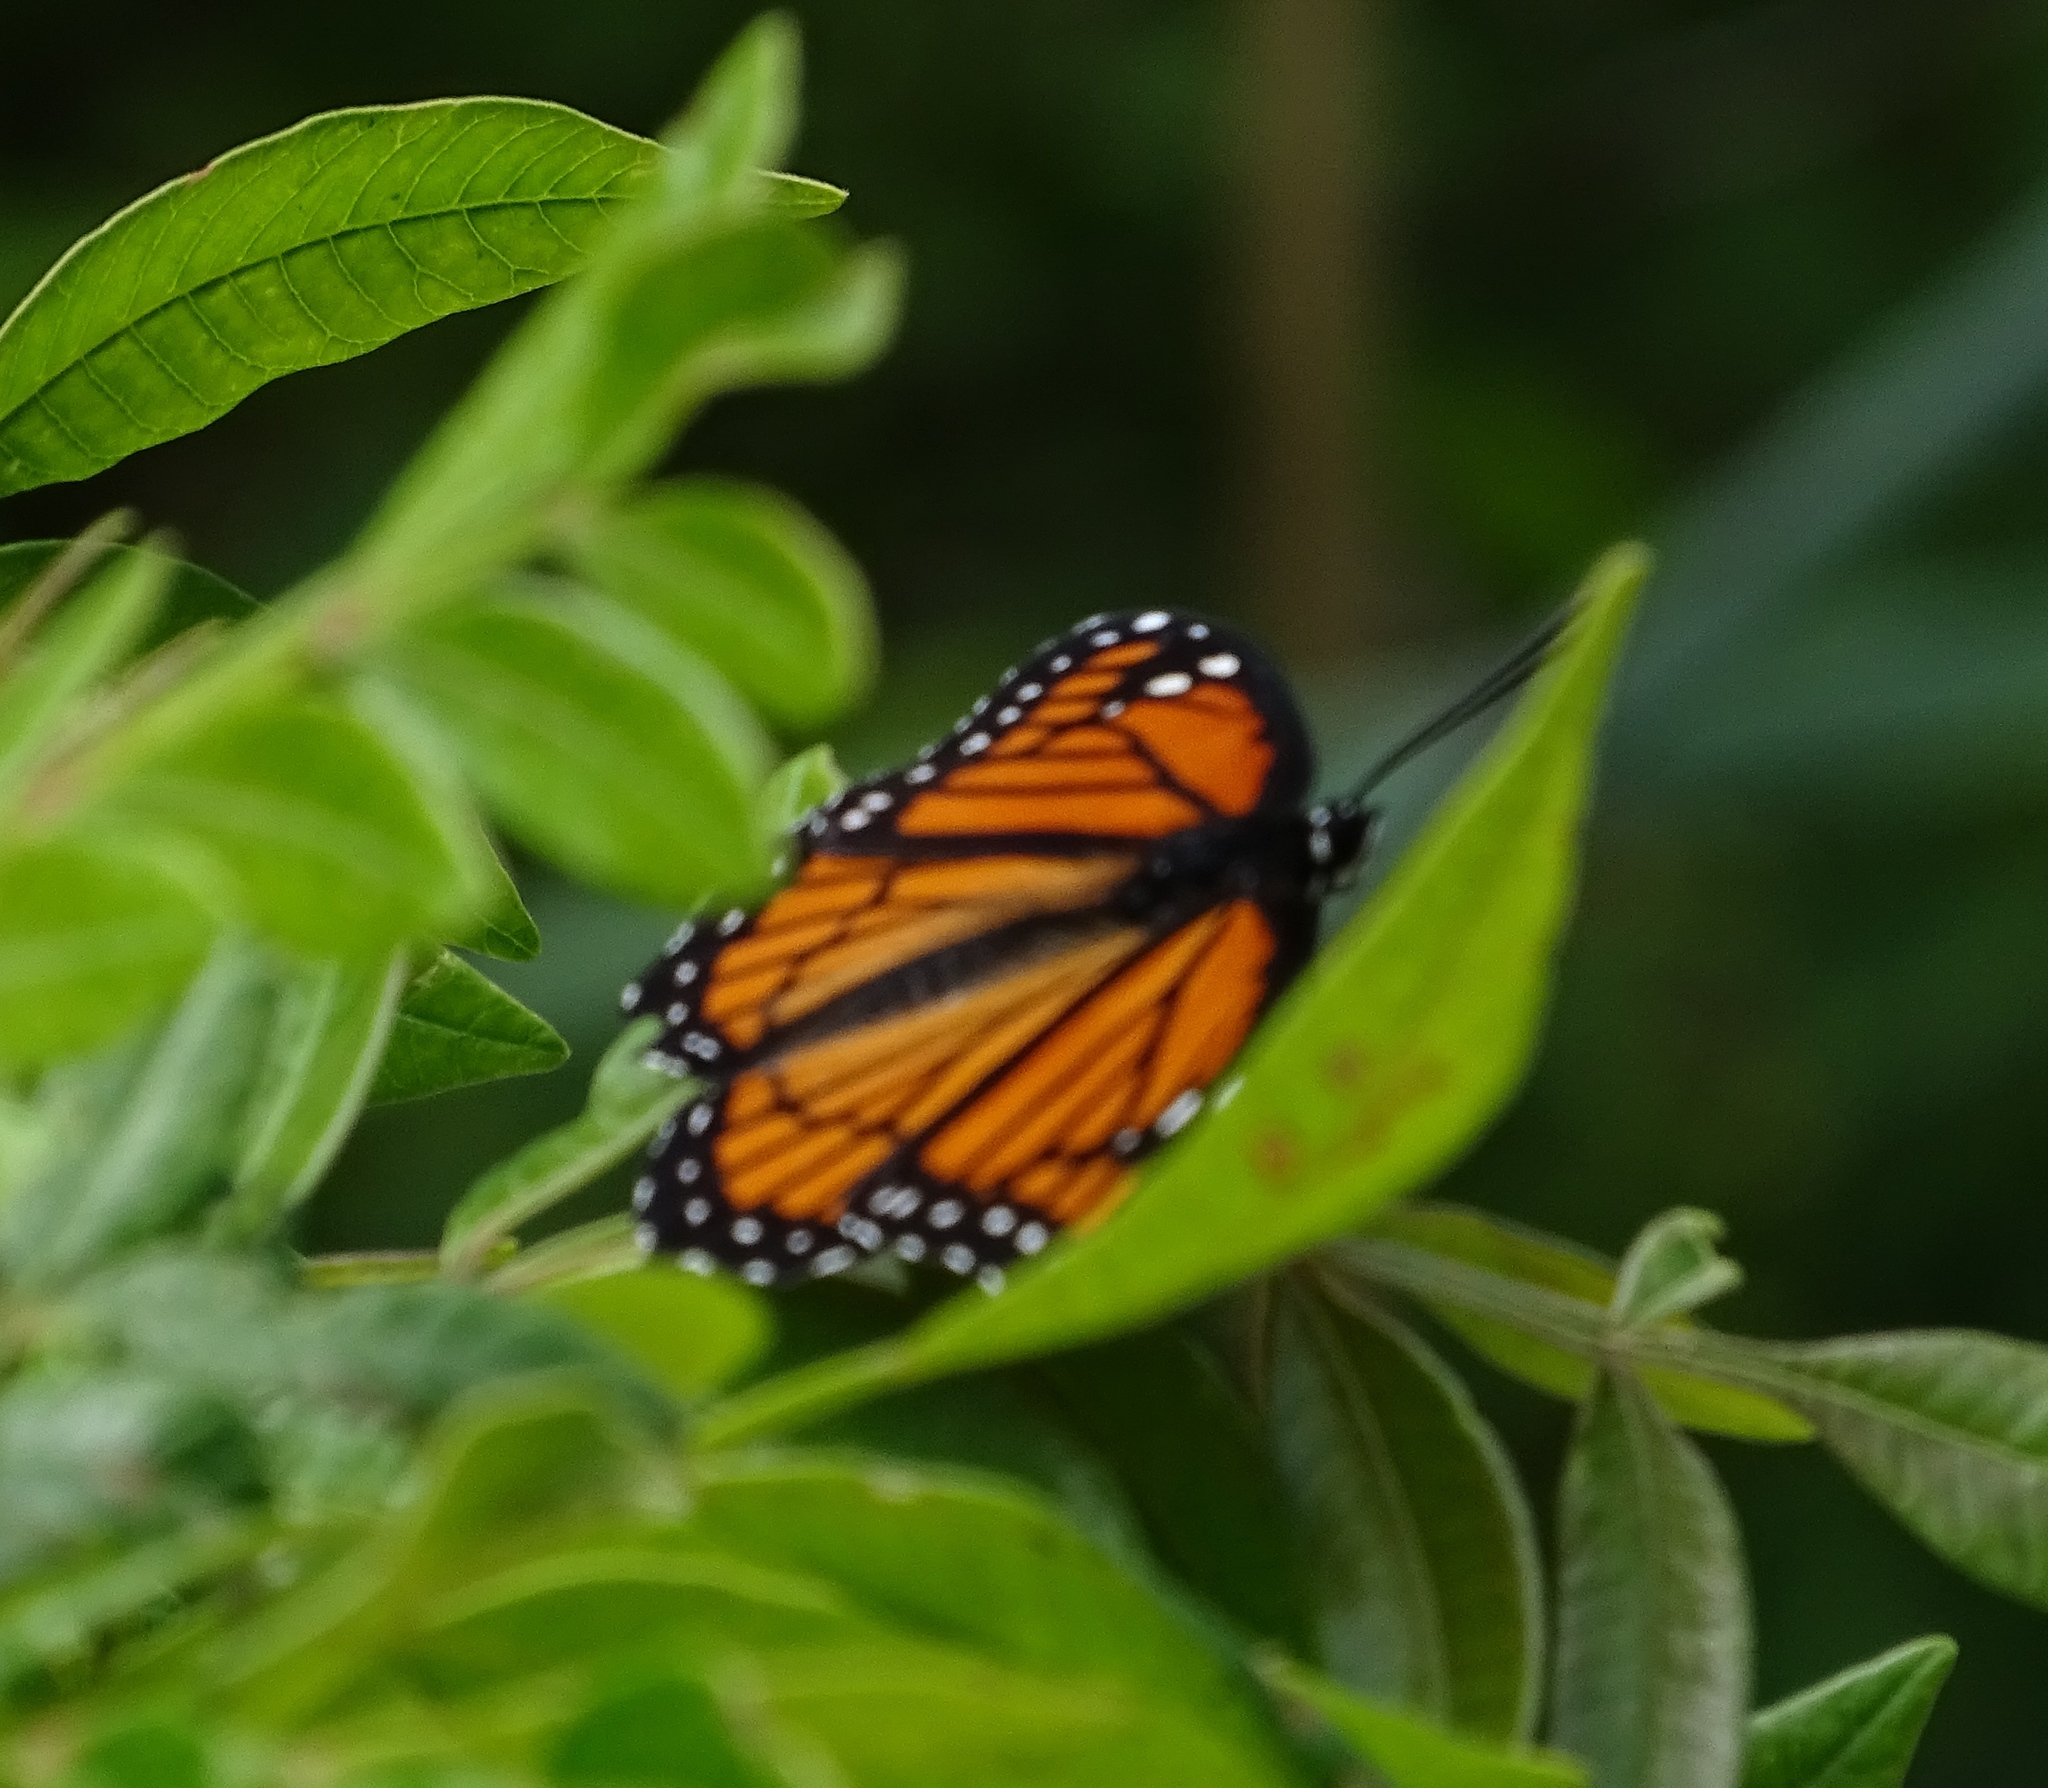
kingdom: Animalia
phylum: Arthropoda
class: Insecta
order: Lepidoptera
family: Nymphalidae
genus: Limenitis
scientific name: Limenitis archippus
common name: Viceroy
